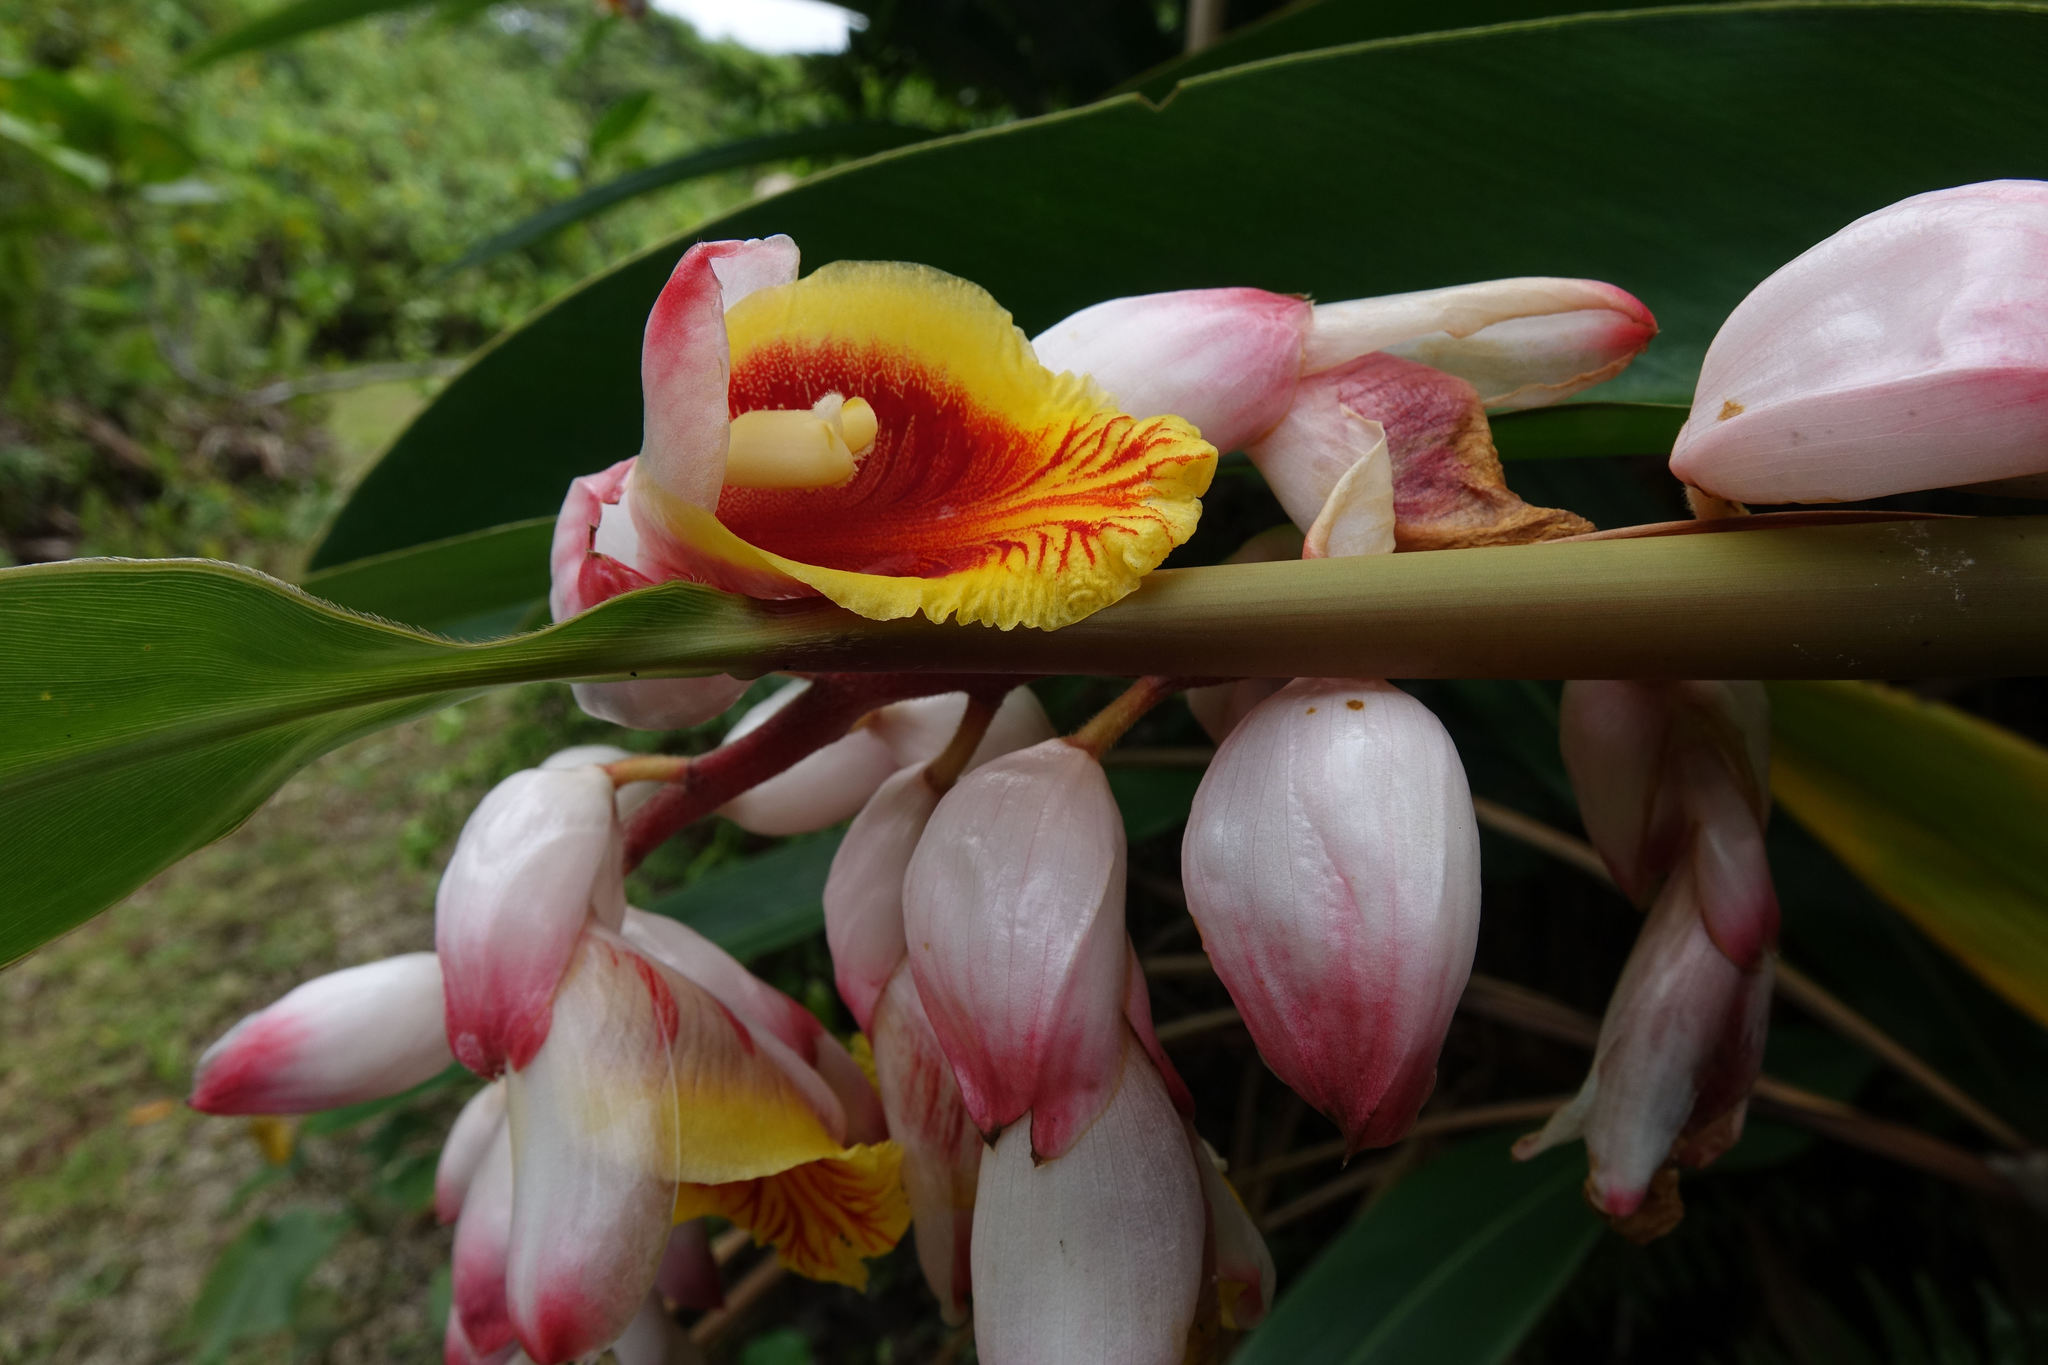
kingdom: Plantae
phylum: Tracheophyta
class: Liliopsida
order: Zingiberales
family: Zingiberaceae
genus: Alpinia
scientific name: Alpinia zerumbet
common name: Shellplant
